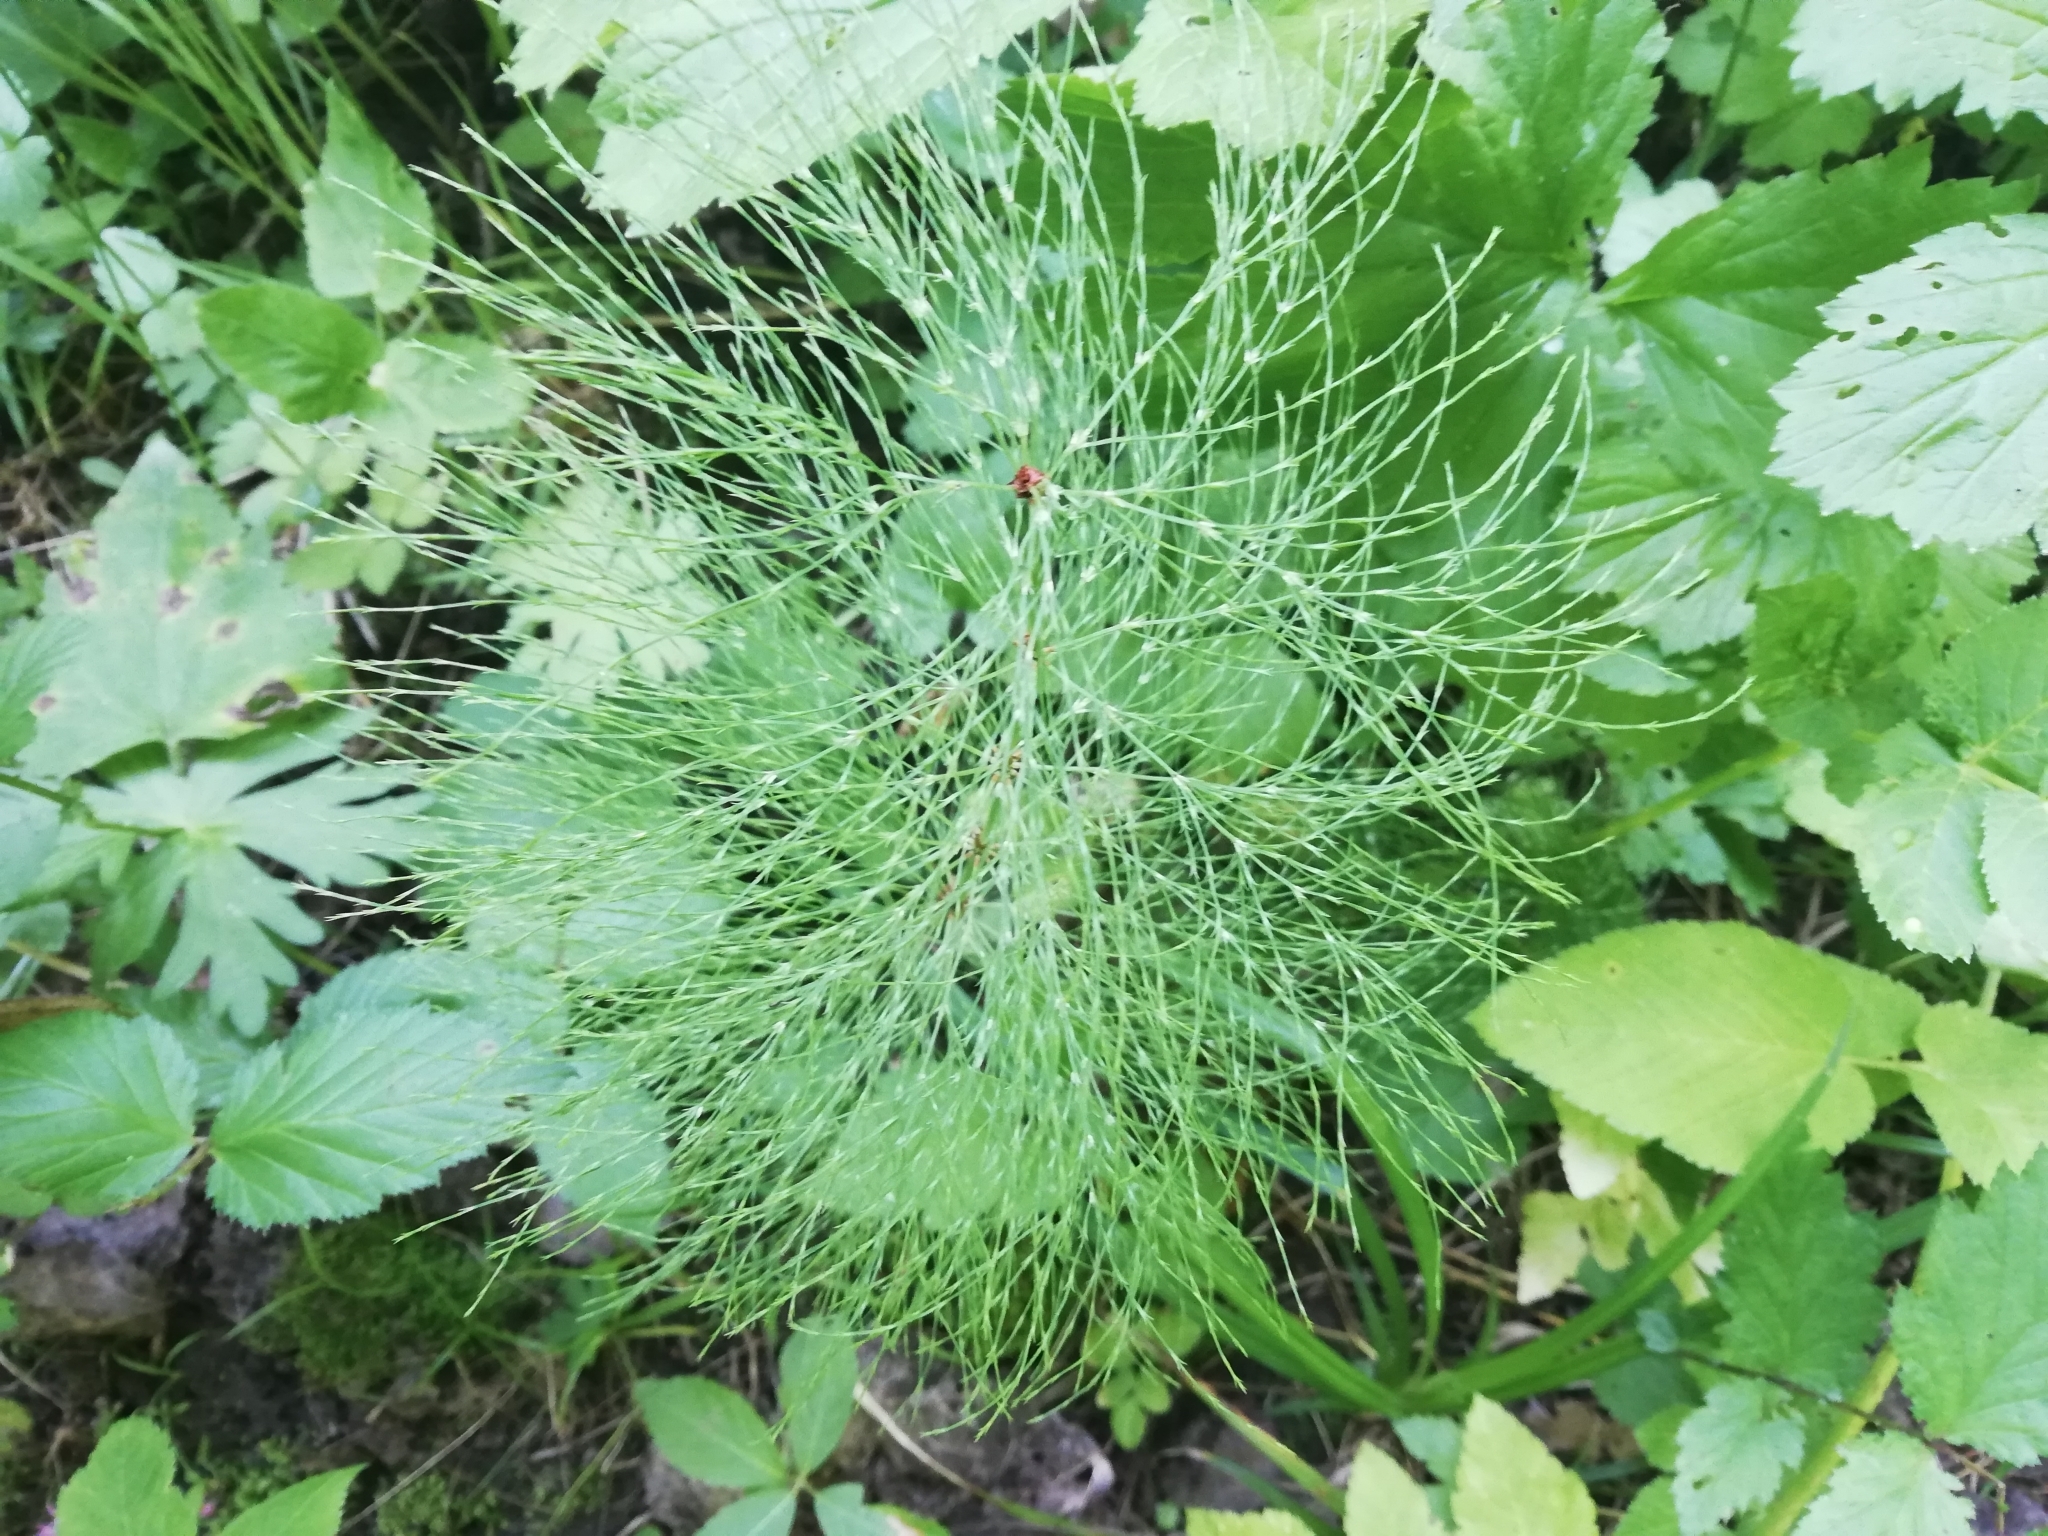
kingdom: Plantae
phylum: Tracheophyta
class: Polypodiopsida
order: Equisetales
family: Equisetaceae
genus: Equisetum
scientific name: Equisetum sylvaticum
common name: Wood horsetail
